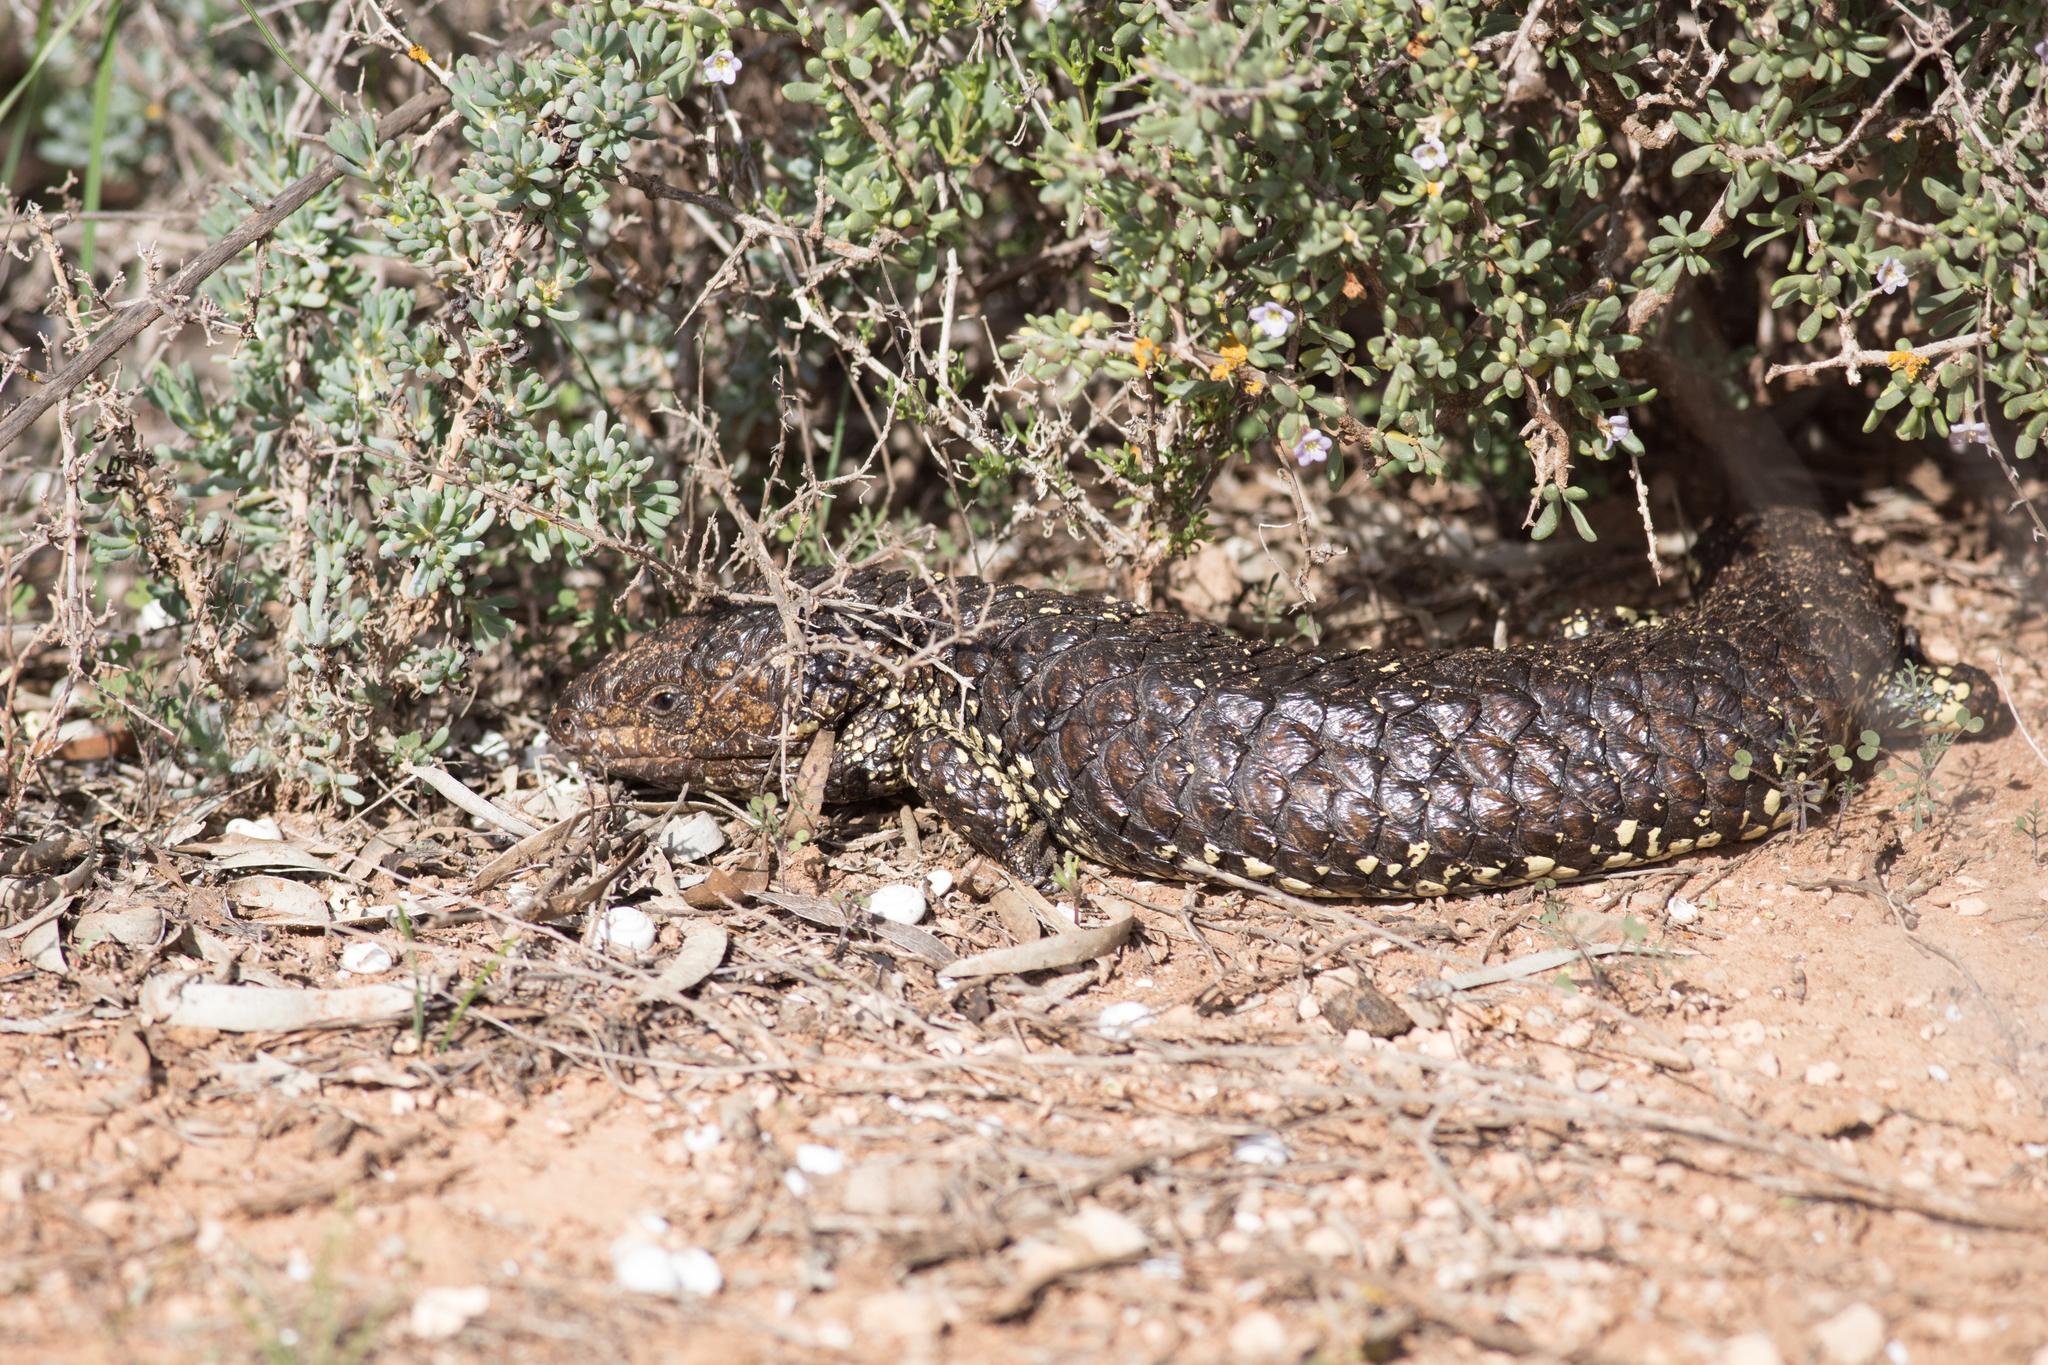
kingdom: Animalia
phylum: Chordata
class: Squamata
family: Scincidae
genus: Tiliqua
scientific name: Tiliqua rugosa
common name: Pinecone lizard
